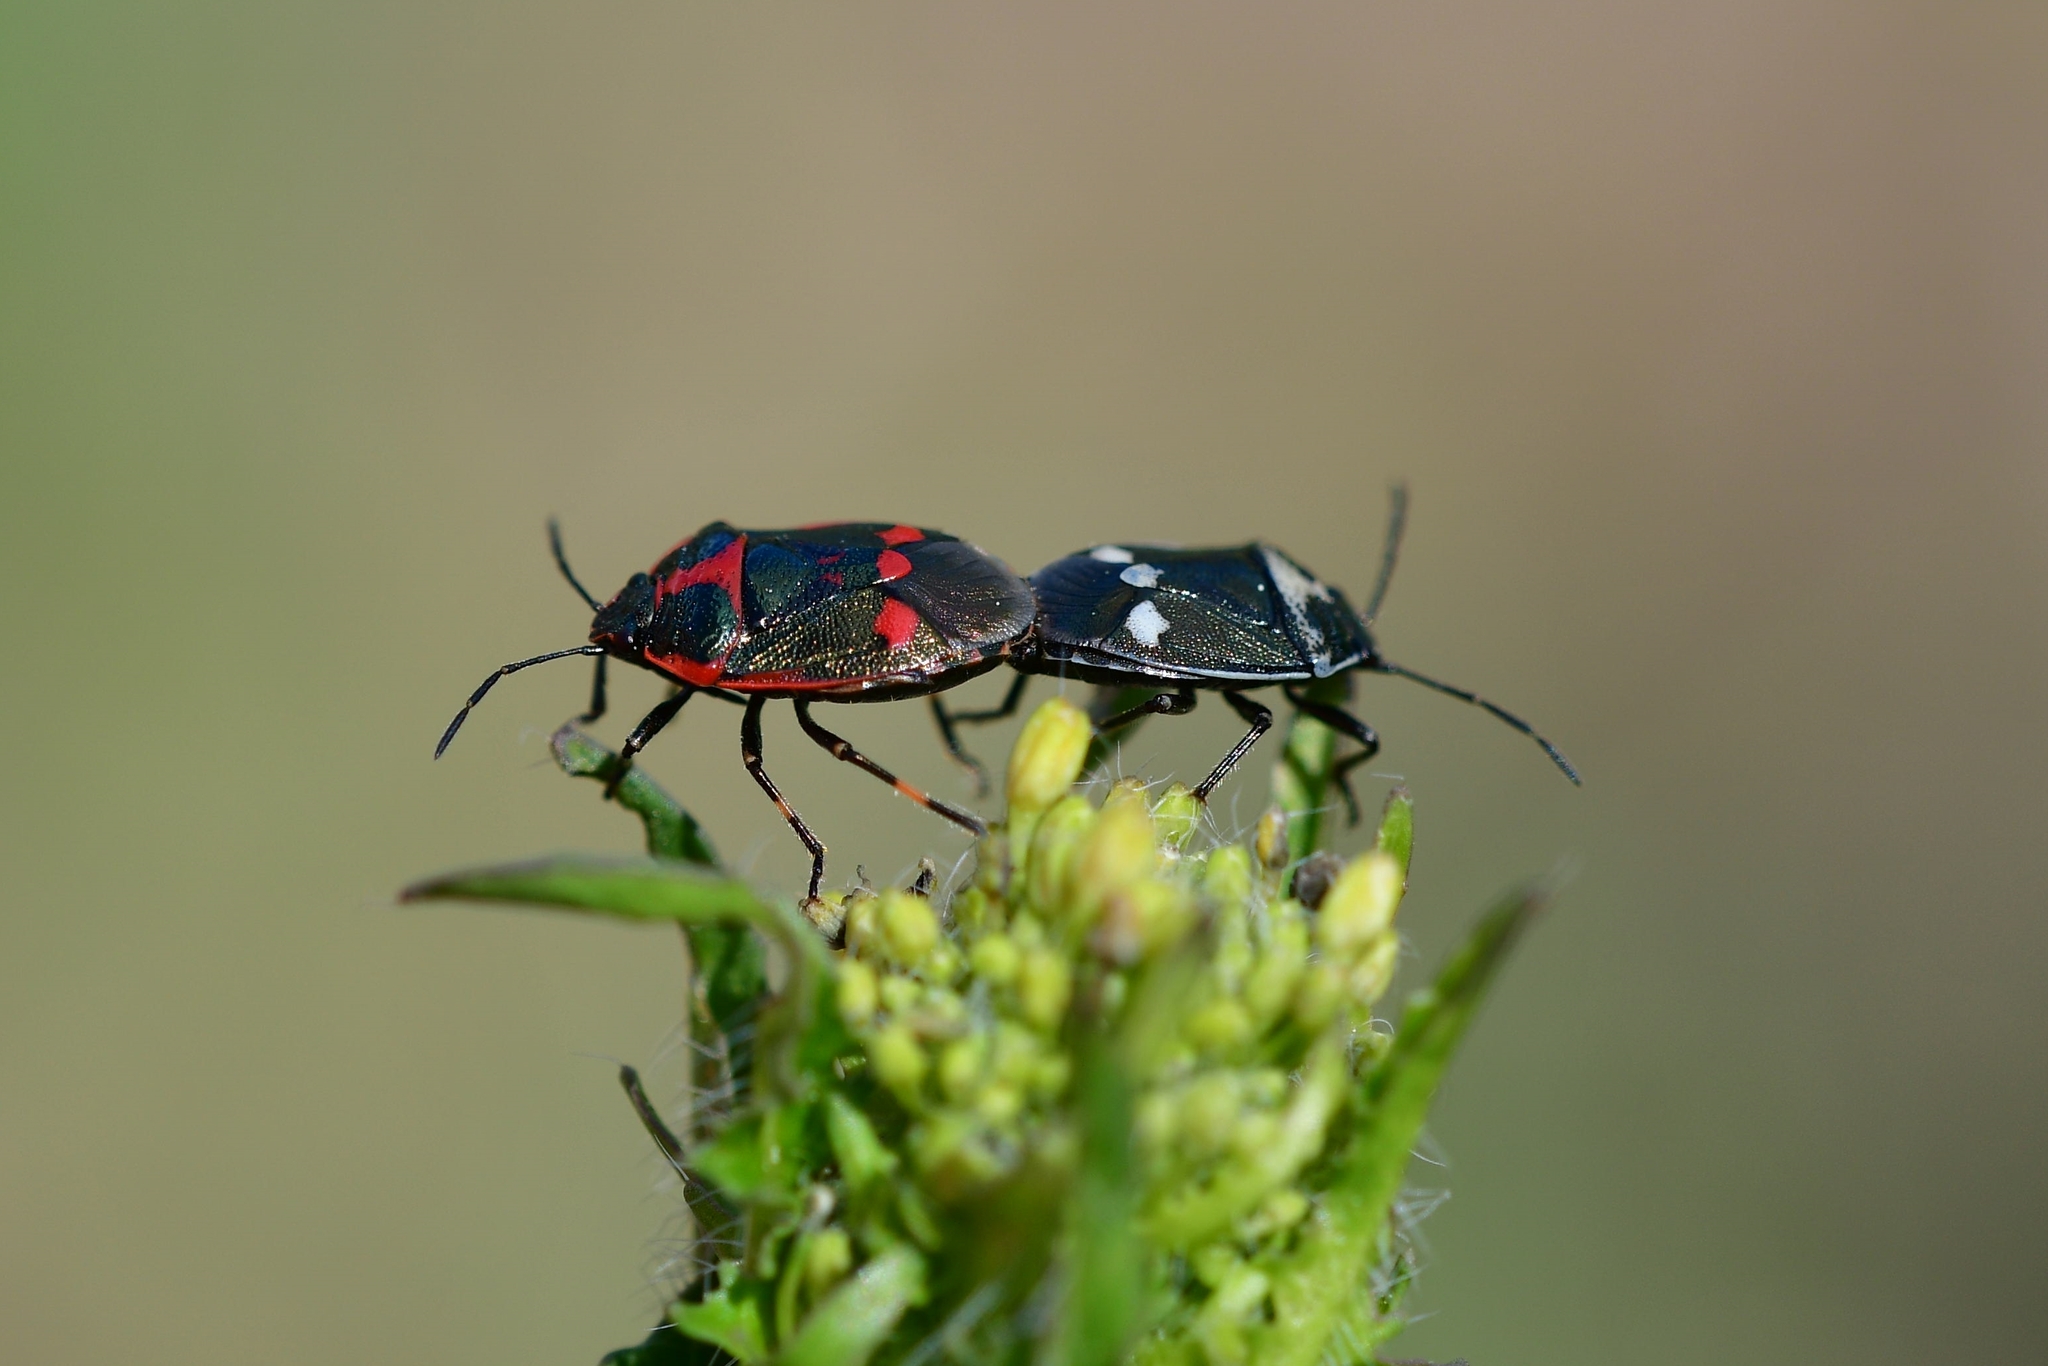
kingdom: Animalia
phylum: Arthropoda
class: Insecta
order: Hemiptera
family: Pentatomidae
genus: Eurydema
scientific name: Eurydema oleracea
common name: Cabbage bug
